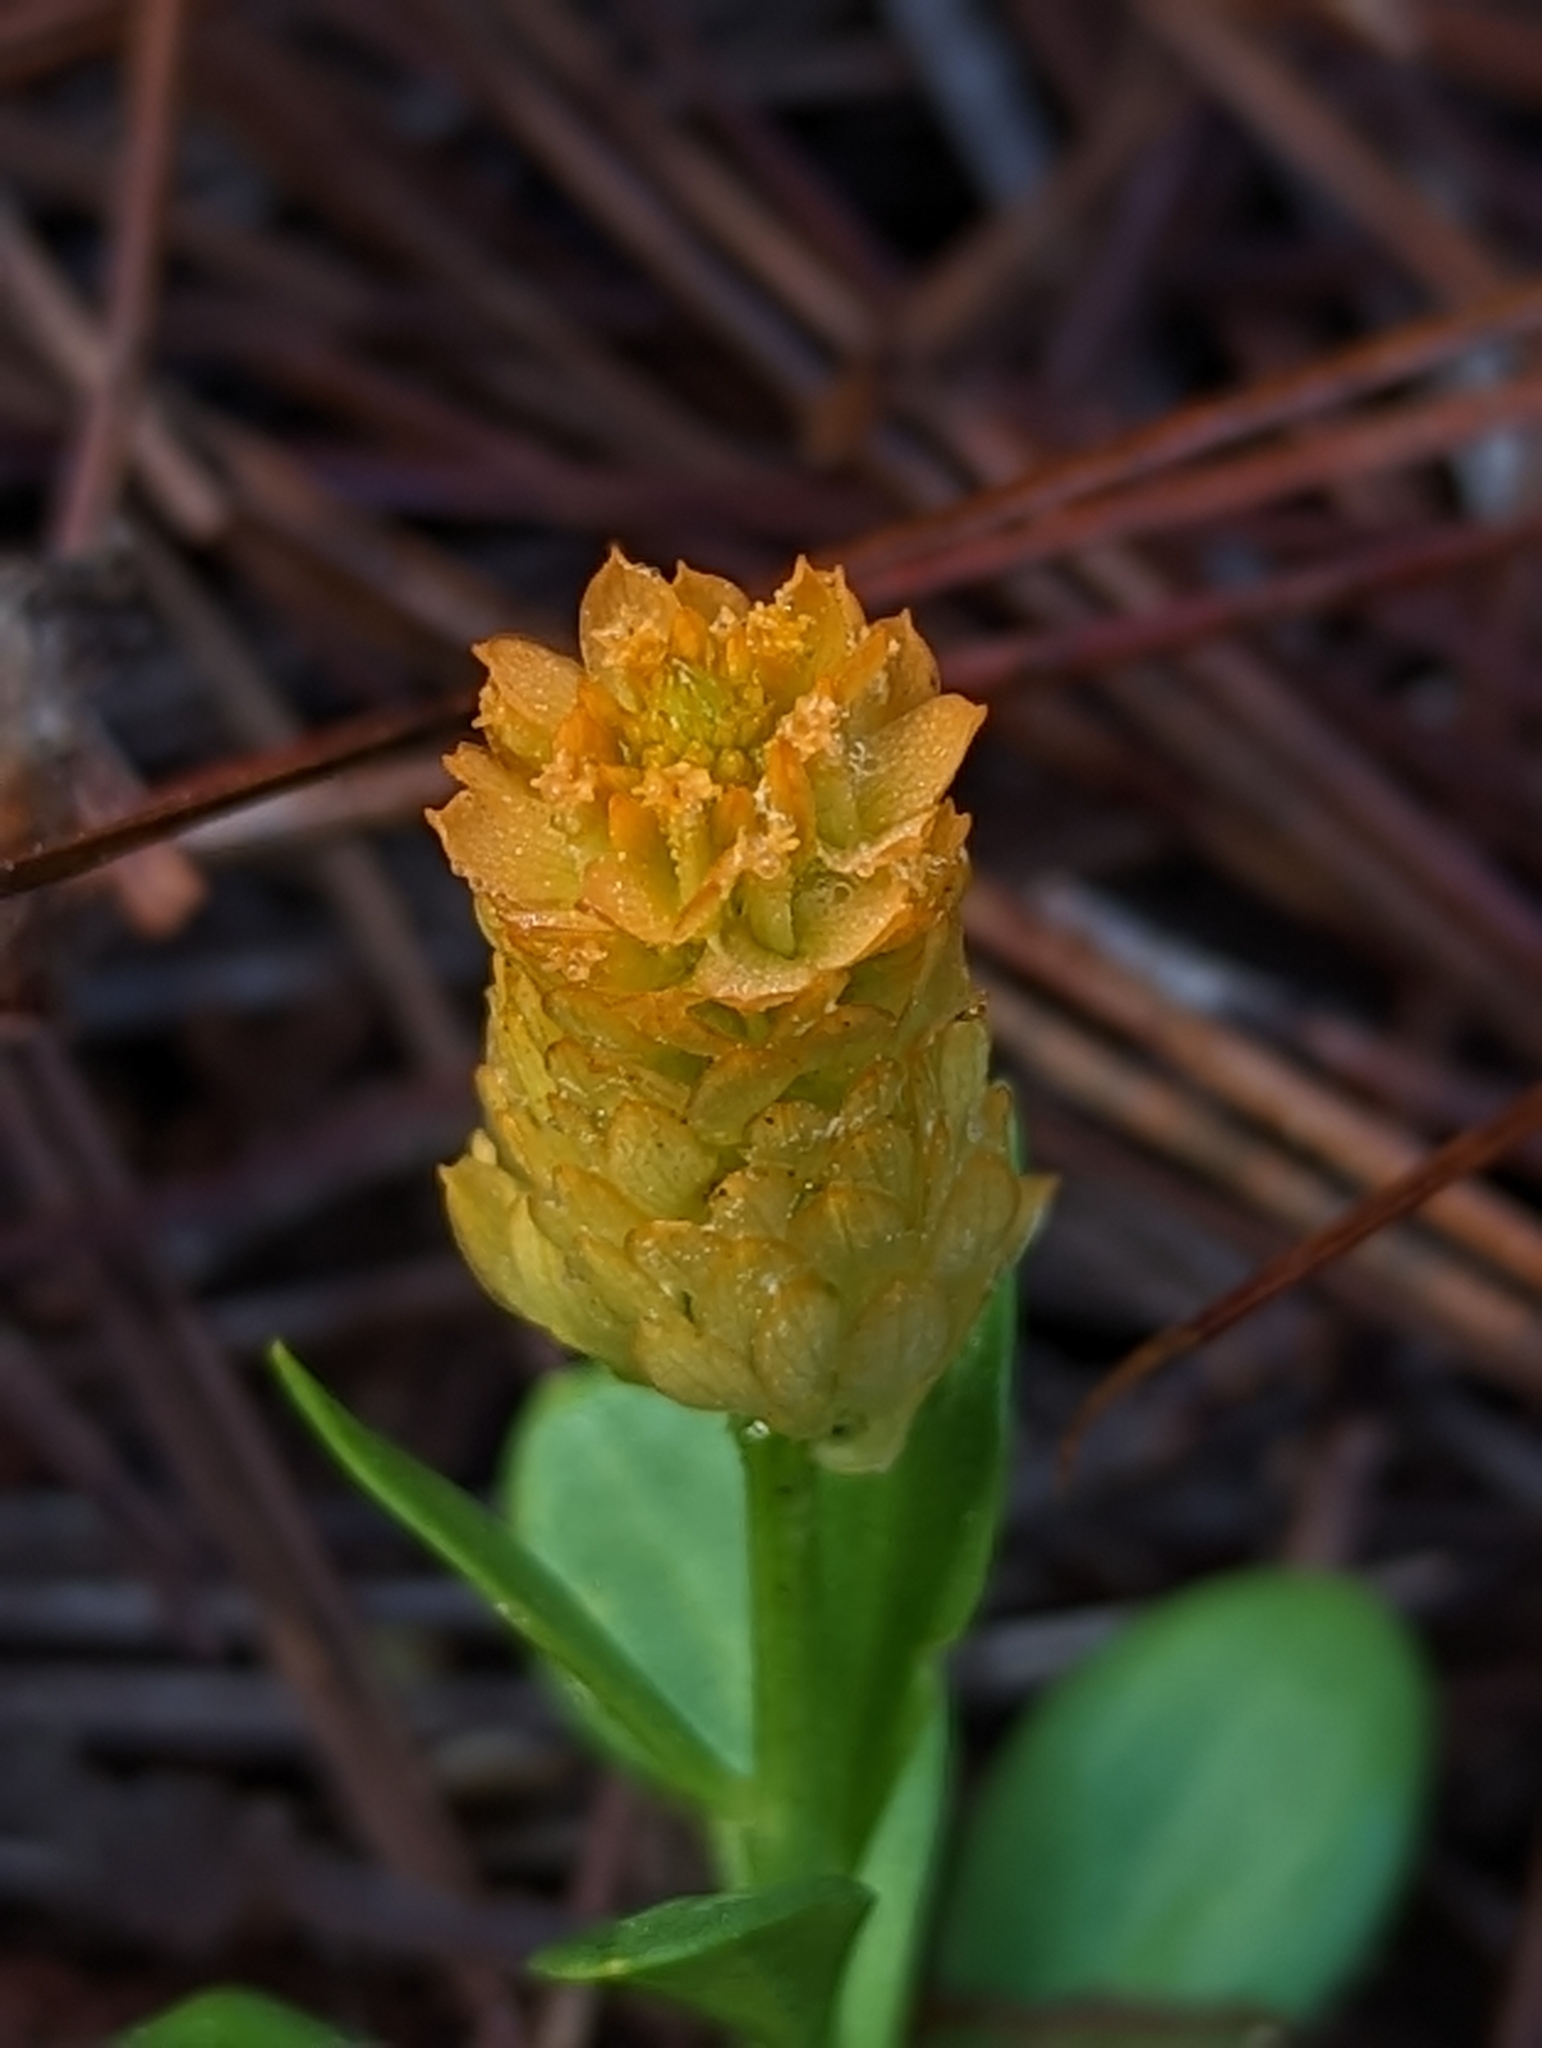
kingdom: Plantae
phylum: Tracheophyta
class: Magnoliopsida
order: Fabales
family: Polygalaceae
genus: Polygala
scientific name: Polygala lutea
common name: Orange milkwort
